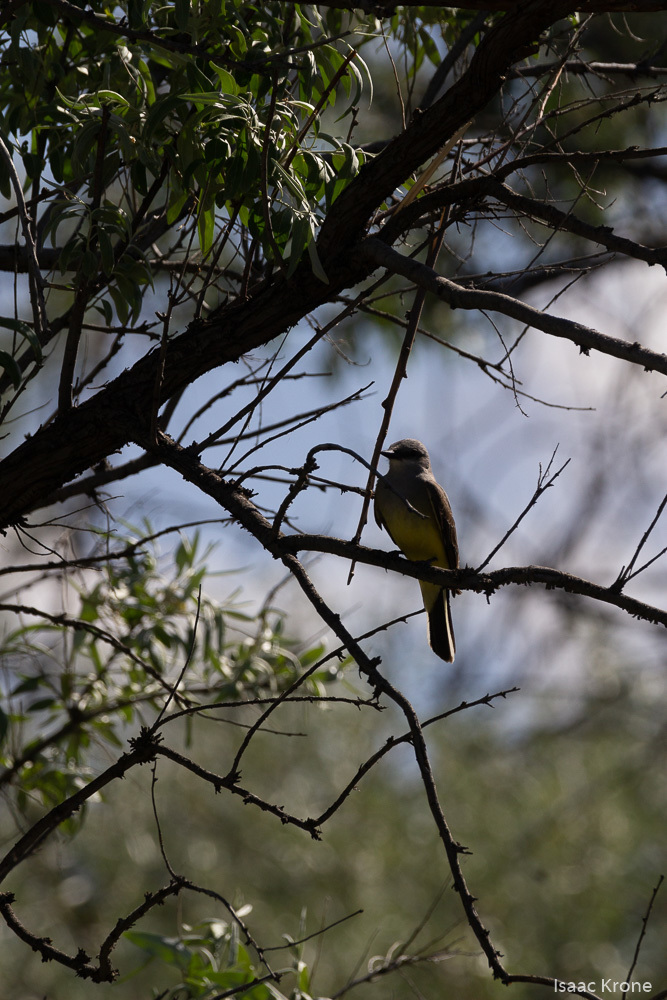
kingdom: Animalia
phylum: Chordata
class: Aves
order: Passeriformes
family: Tyrannidae
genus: Tyrannus
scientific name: Tyrannus verticalis
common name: Western kingbird
